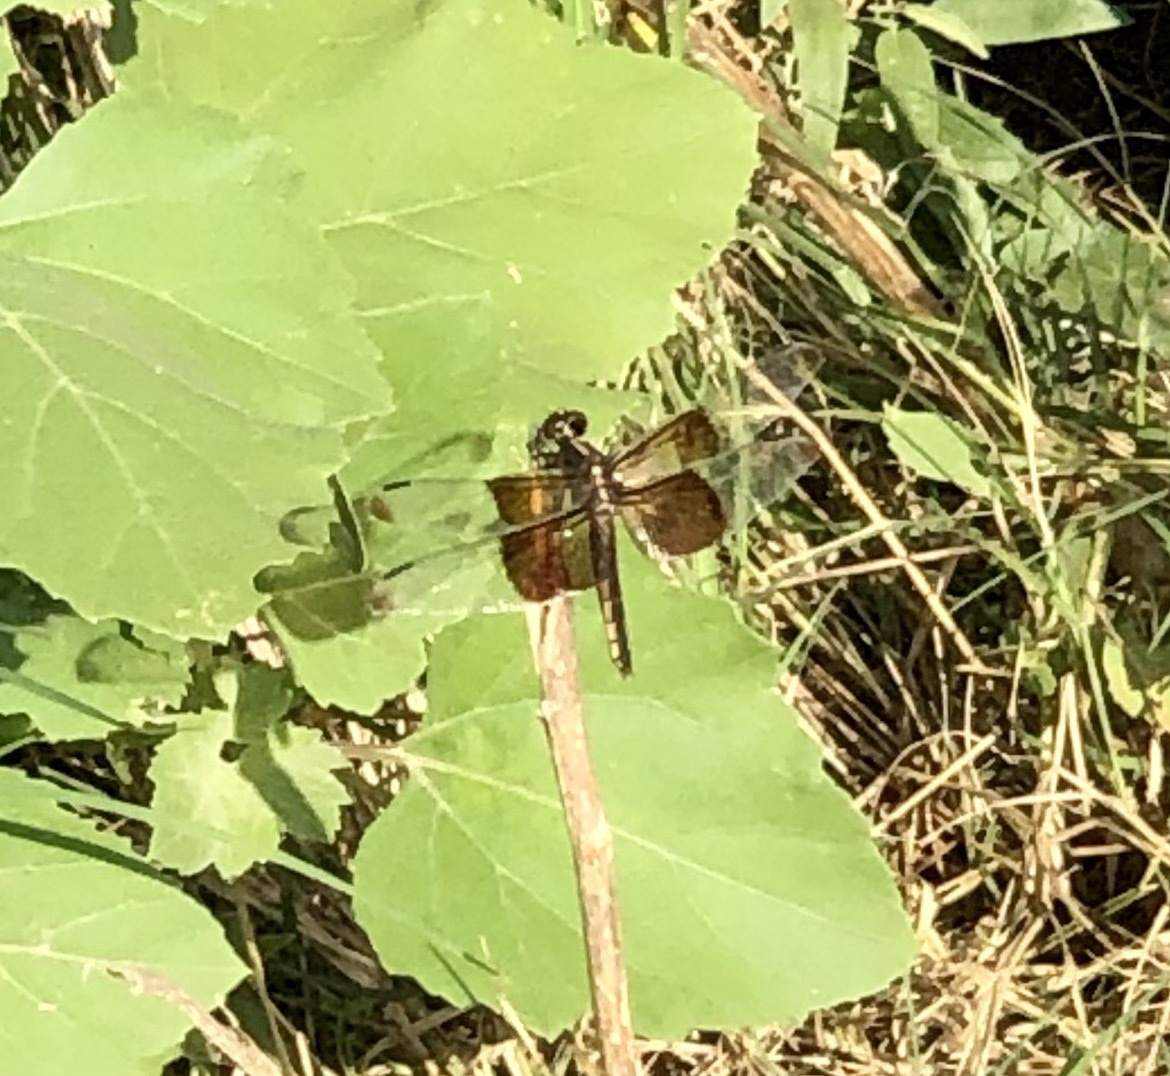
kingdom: Animalia
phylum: Arthropoda
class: Insecta
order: Odonata
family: Libellulidae
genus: Libellula
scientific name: Libellula luctuosa
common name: Widow skimmer
